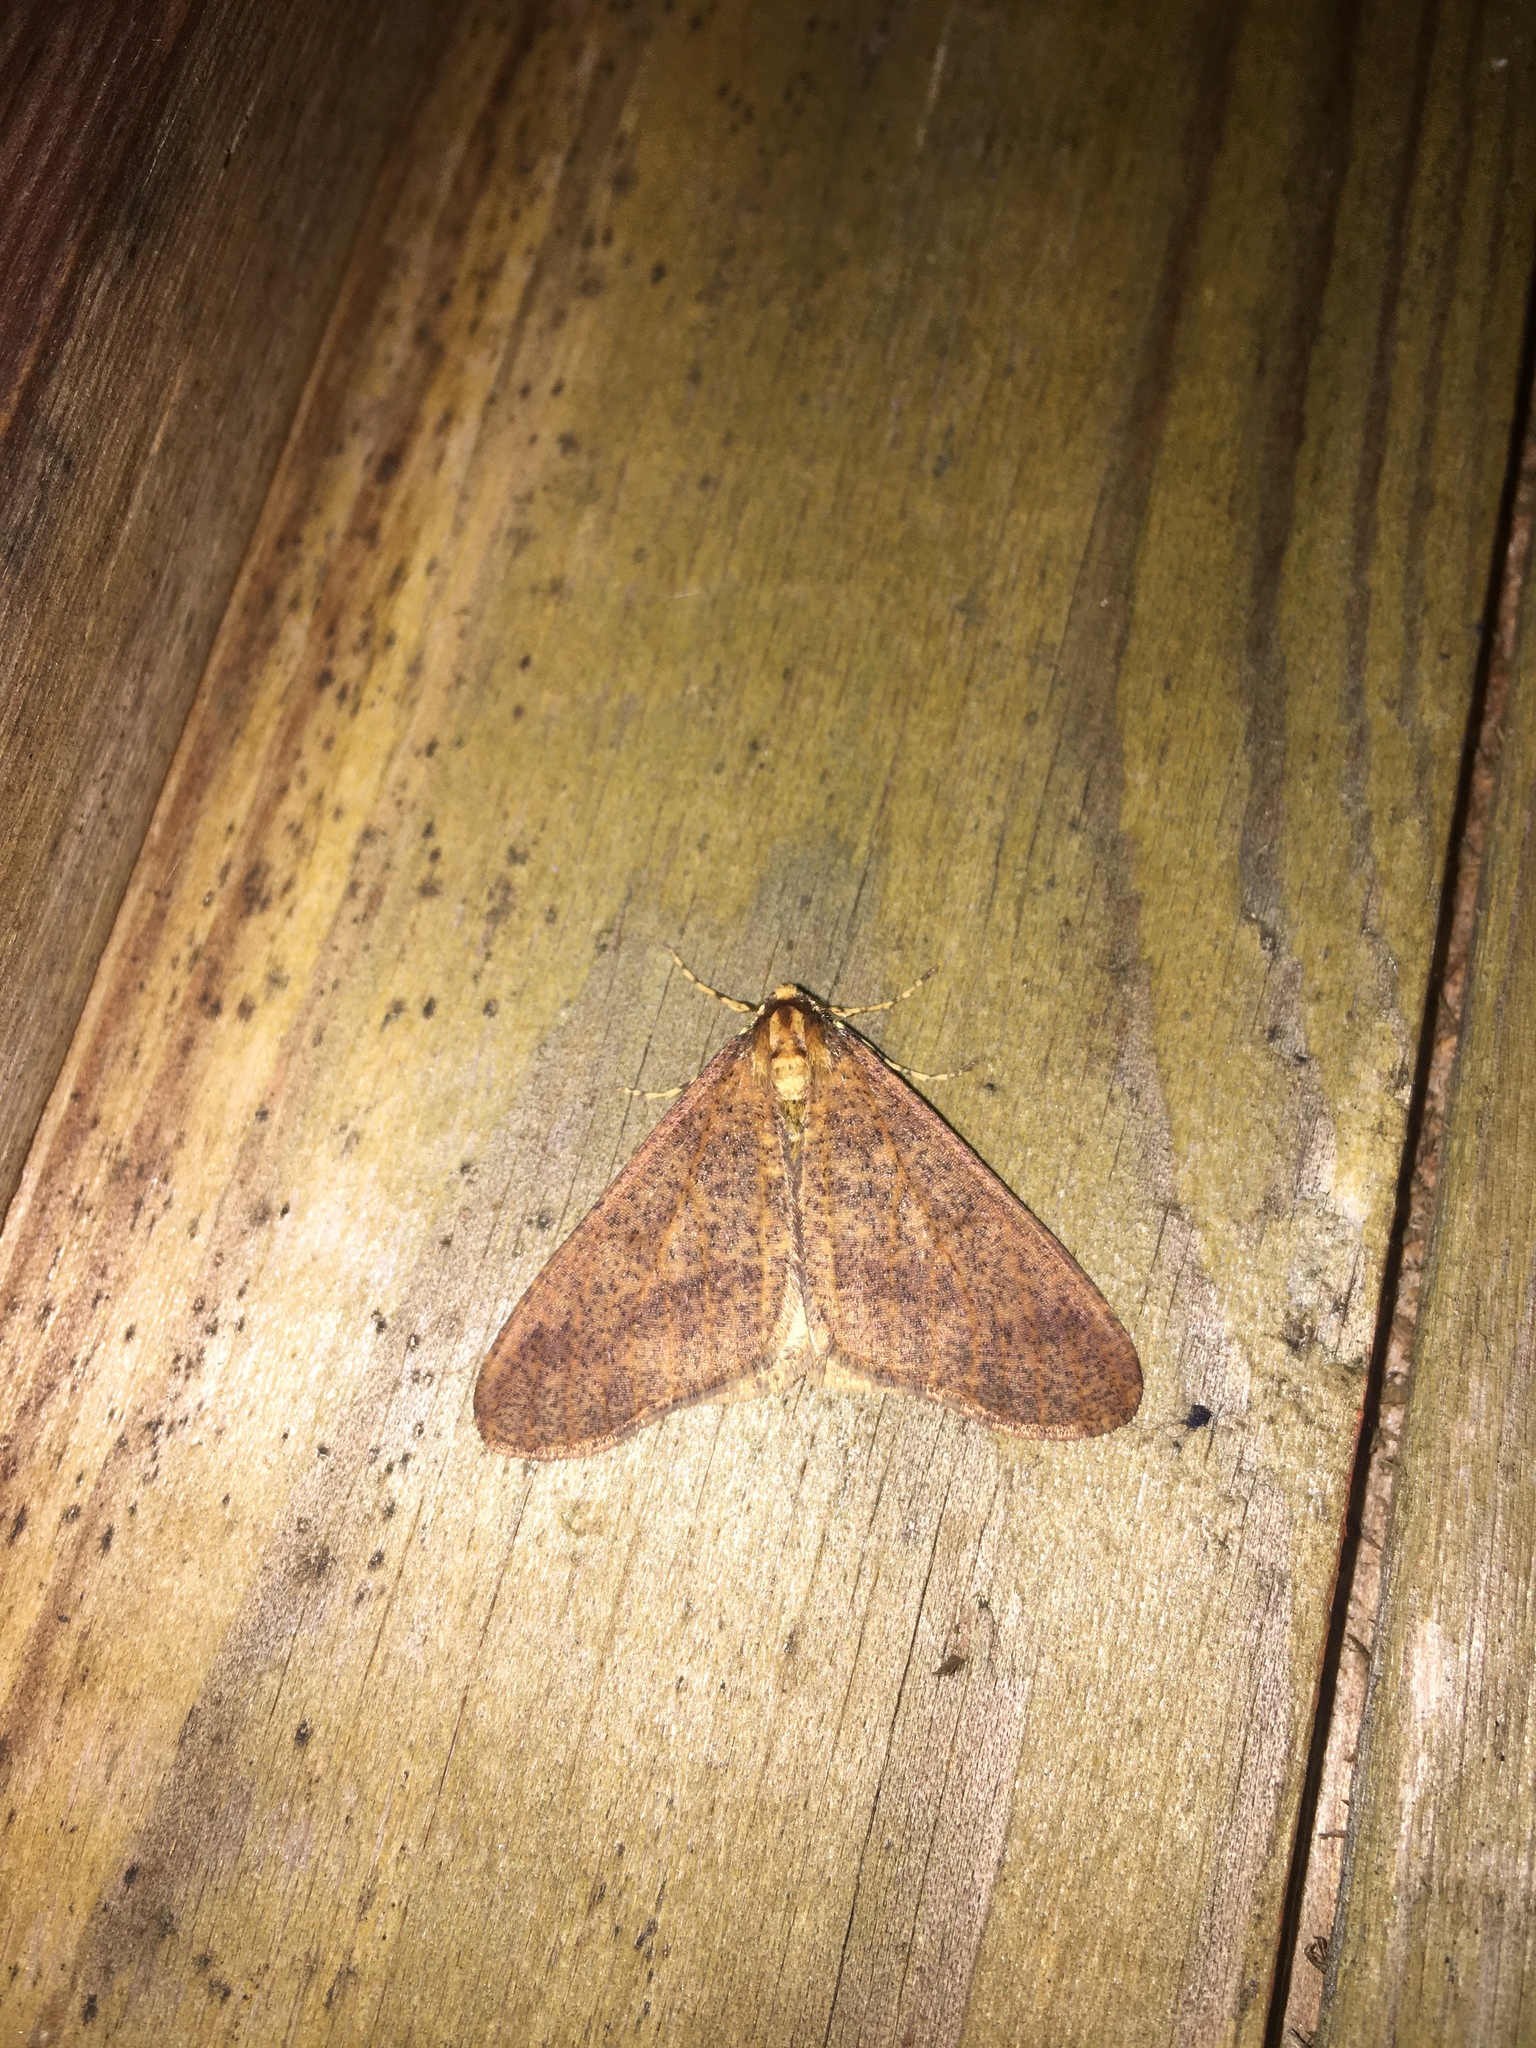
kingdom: Animalia
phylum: Arthropoda
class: Insecta
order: Lepidoptera
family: Geometridae
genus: Erannis
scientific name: Erannis defoliaria
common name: Mottled umber
